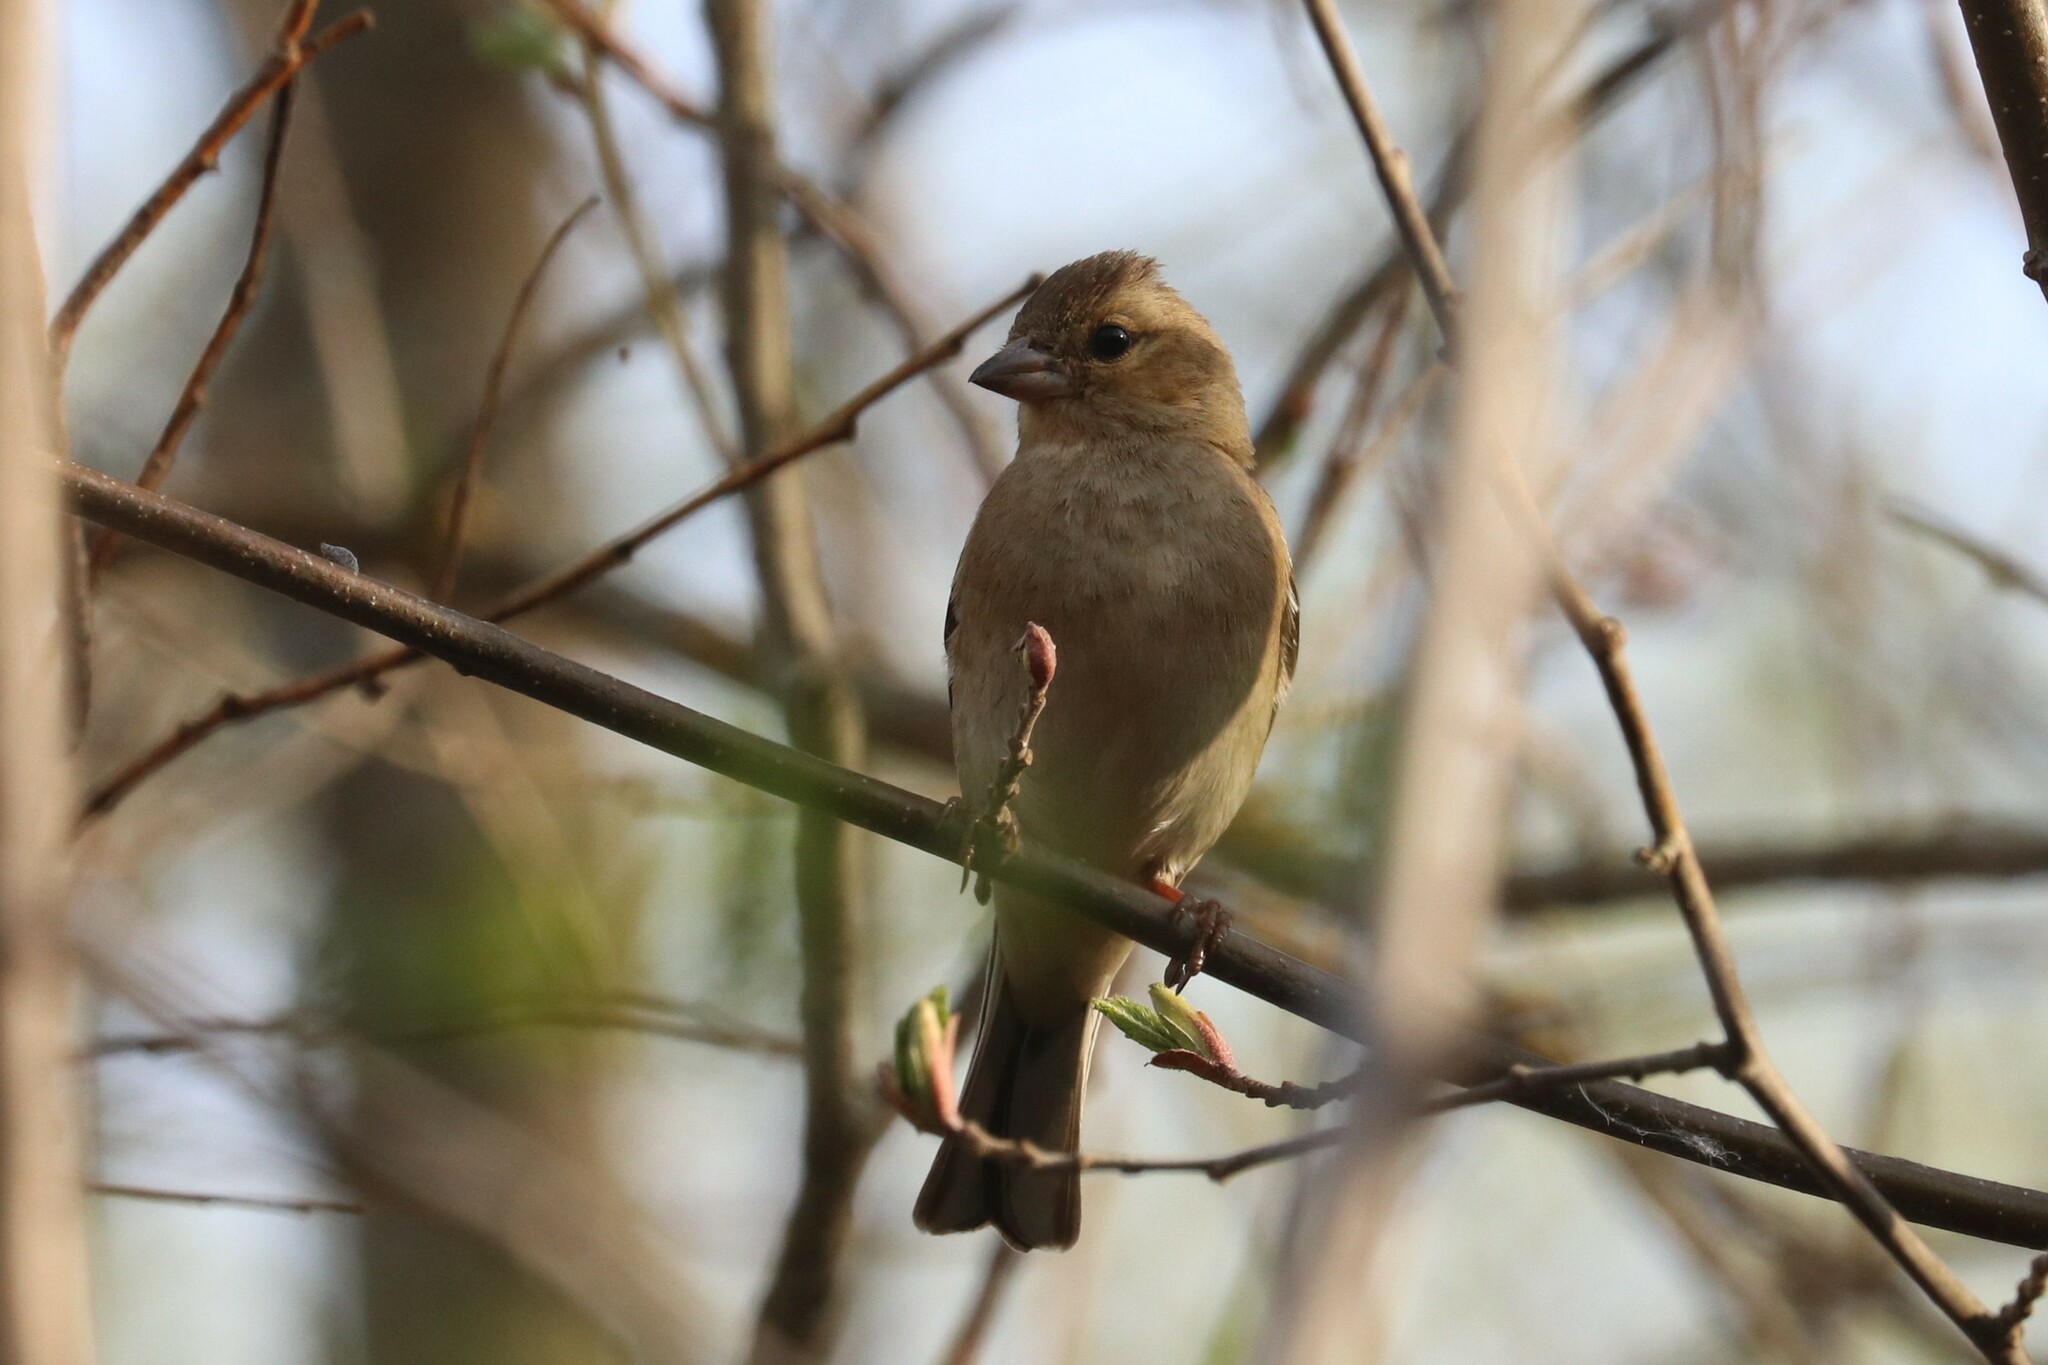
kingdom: Animalia
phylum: Chordata
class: Aves
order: Passeriformes
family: Fringillidae
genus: Fringilla
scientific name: Fringilla coelebs
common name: Common chaffinch
